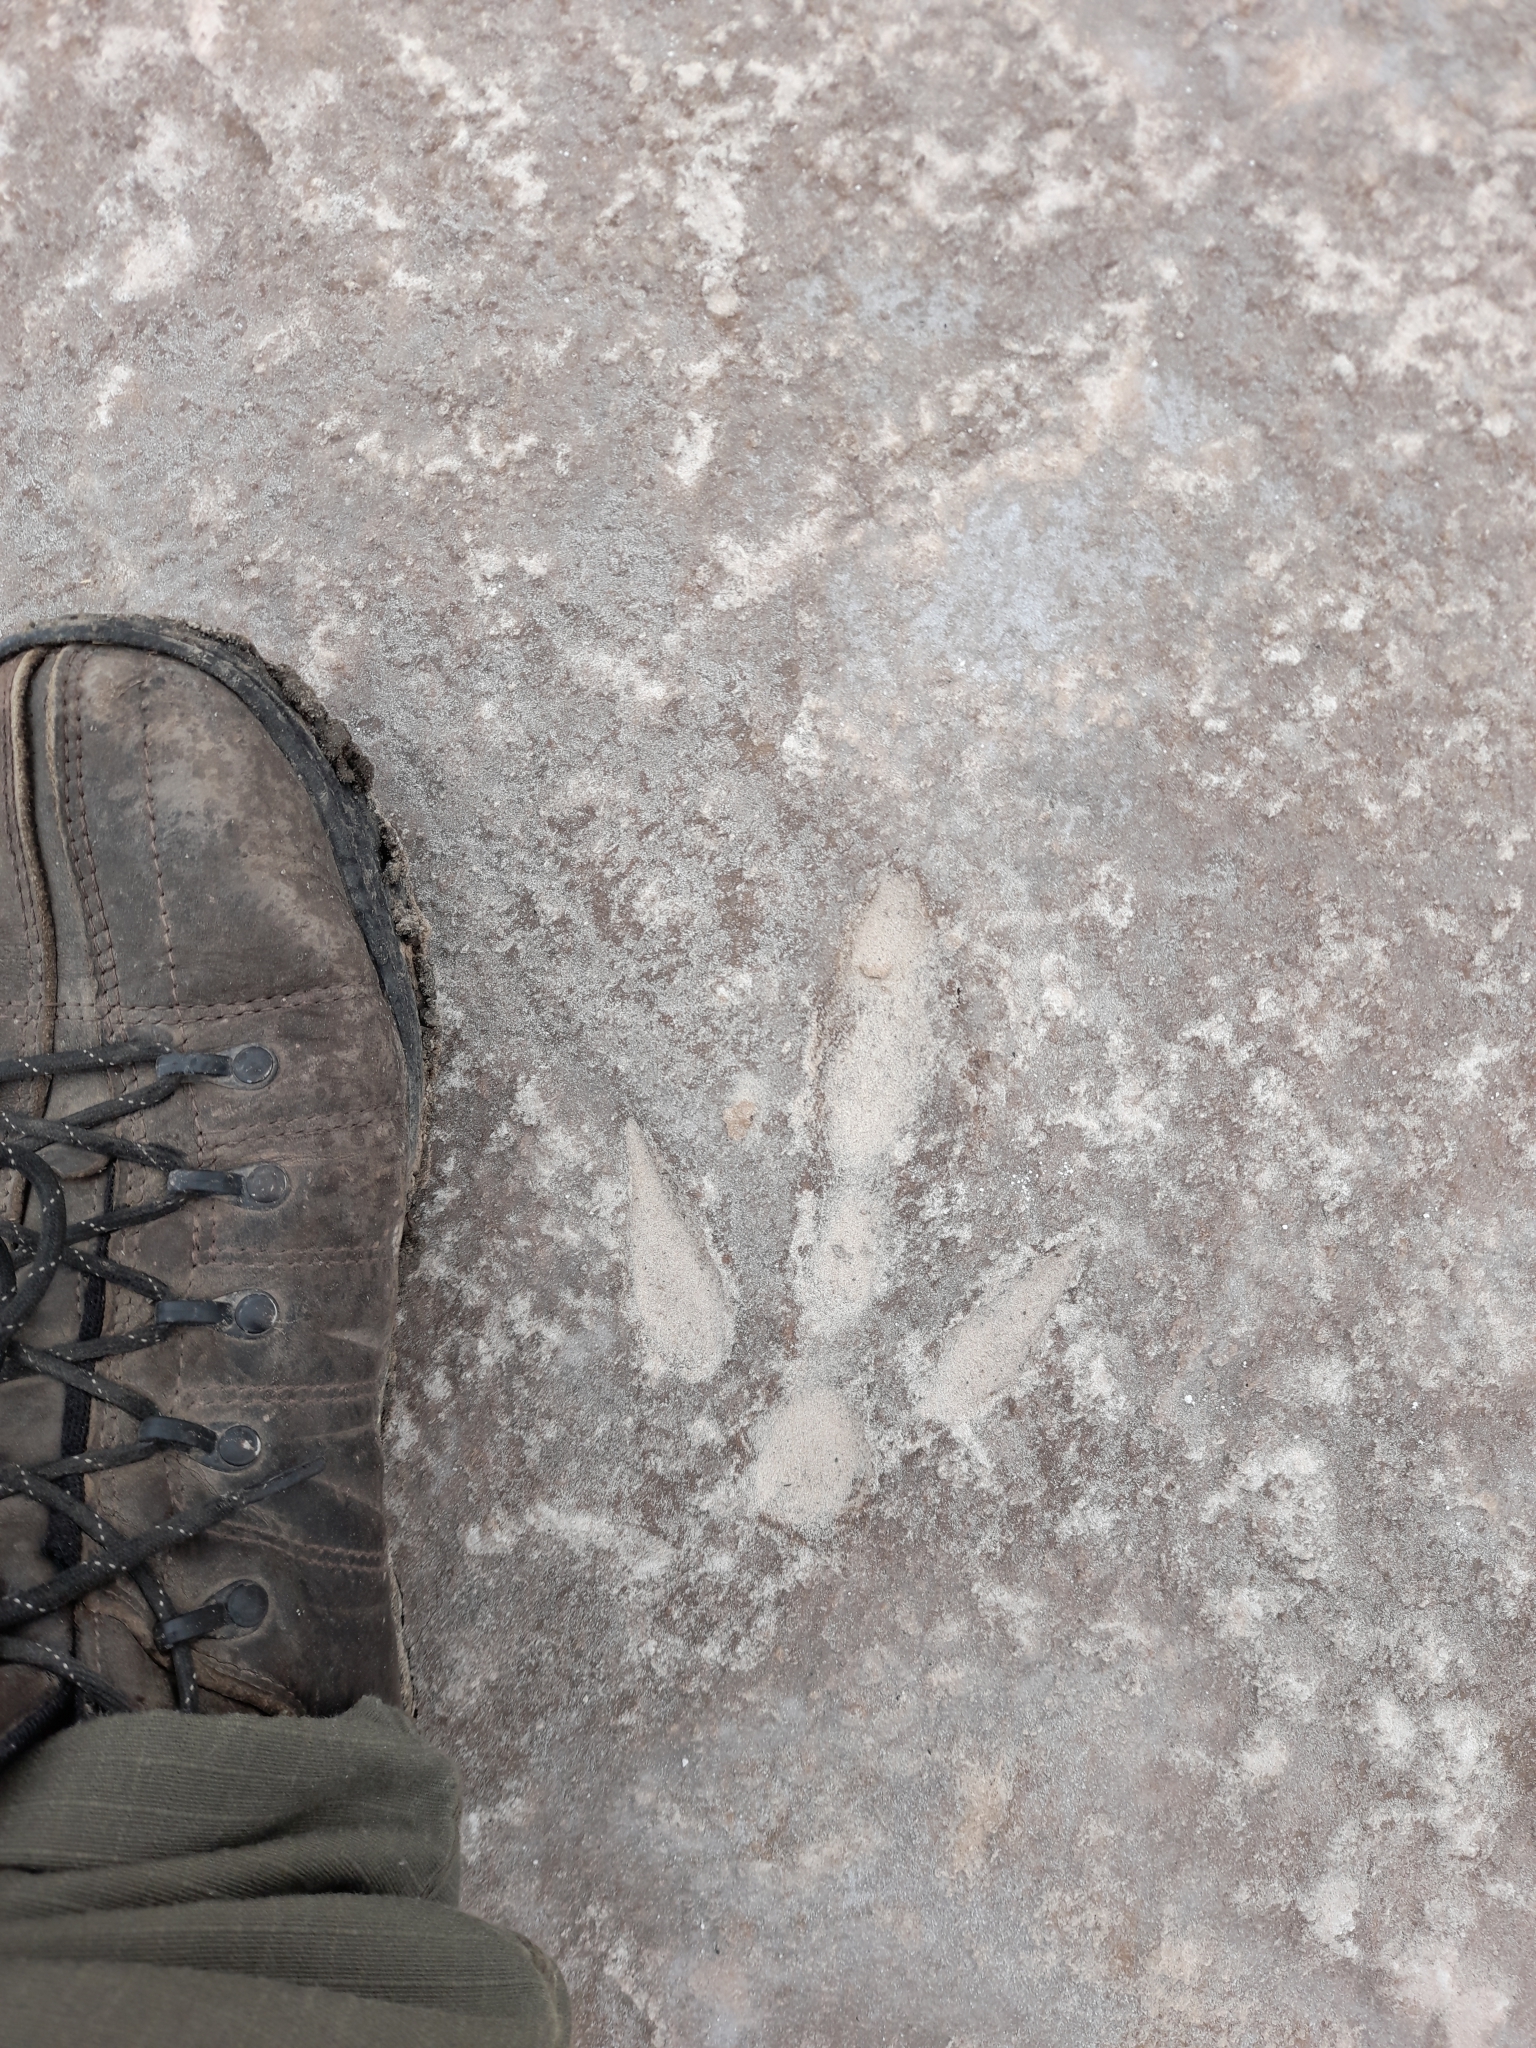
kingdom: Animalia
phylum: Chordata
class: Aves
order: Rheiformes
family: Rheidae
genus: Rhea
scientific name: Rhea americana
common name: Greater rhea
